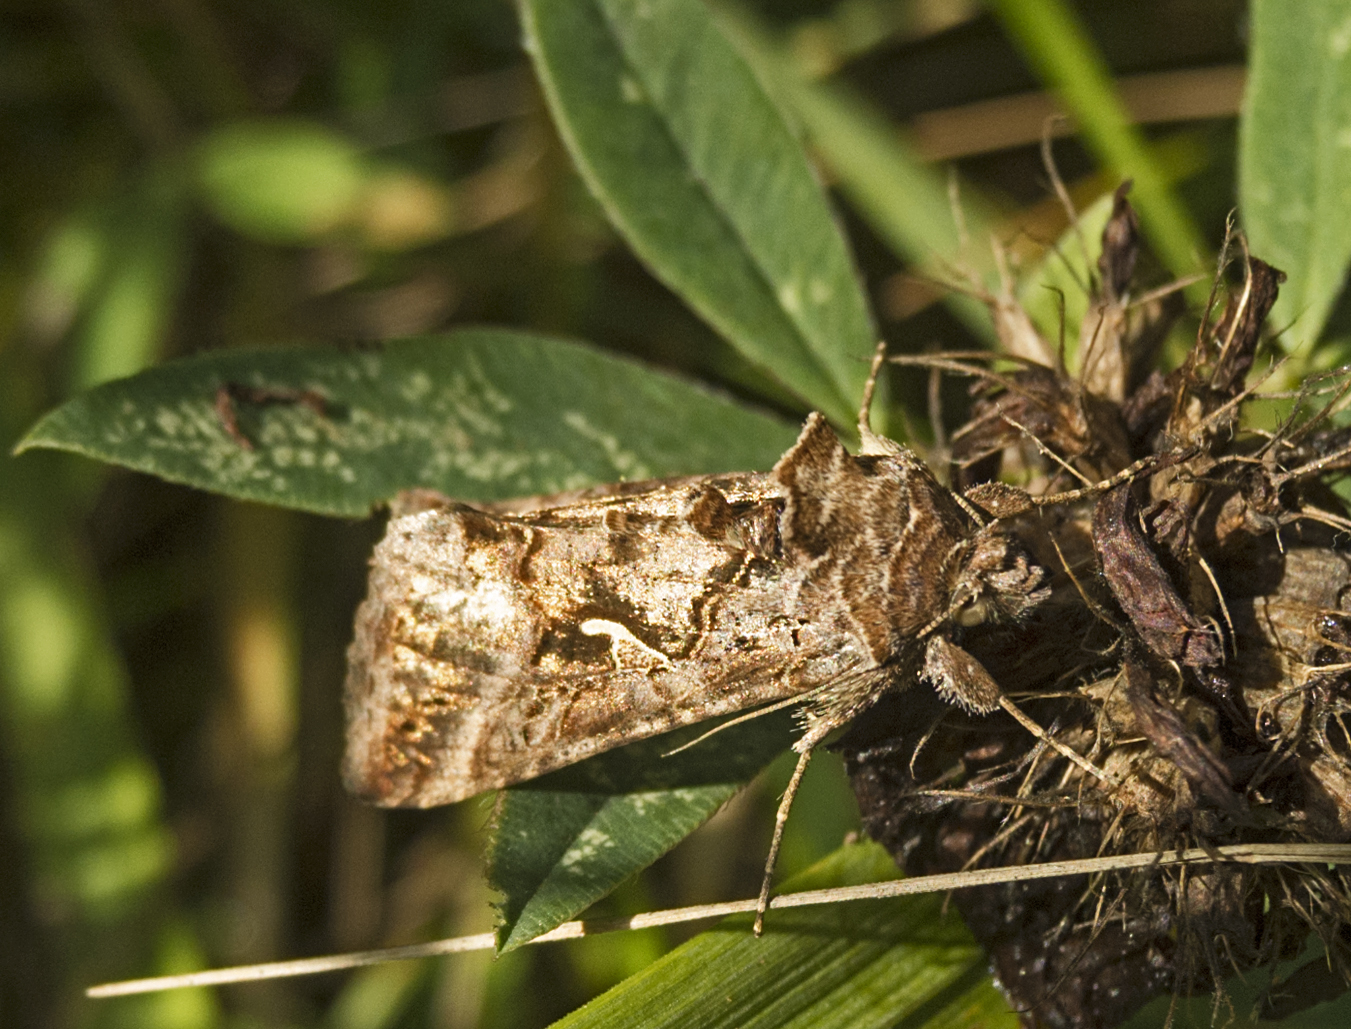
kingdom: Animalia
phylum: Arthropoda
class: Insecta
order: Lepidoptera
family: Noctuidae
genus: Autographa
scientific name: Autographa gamma
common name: Silver y
